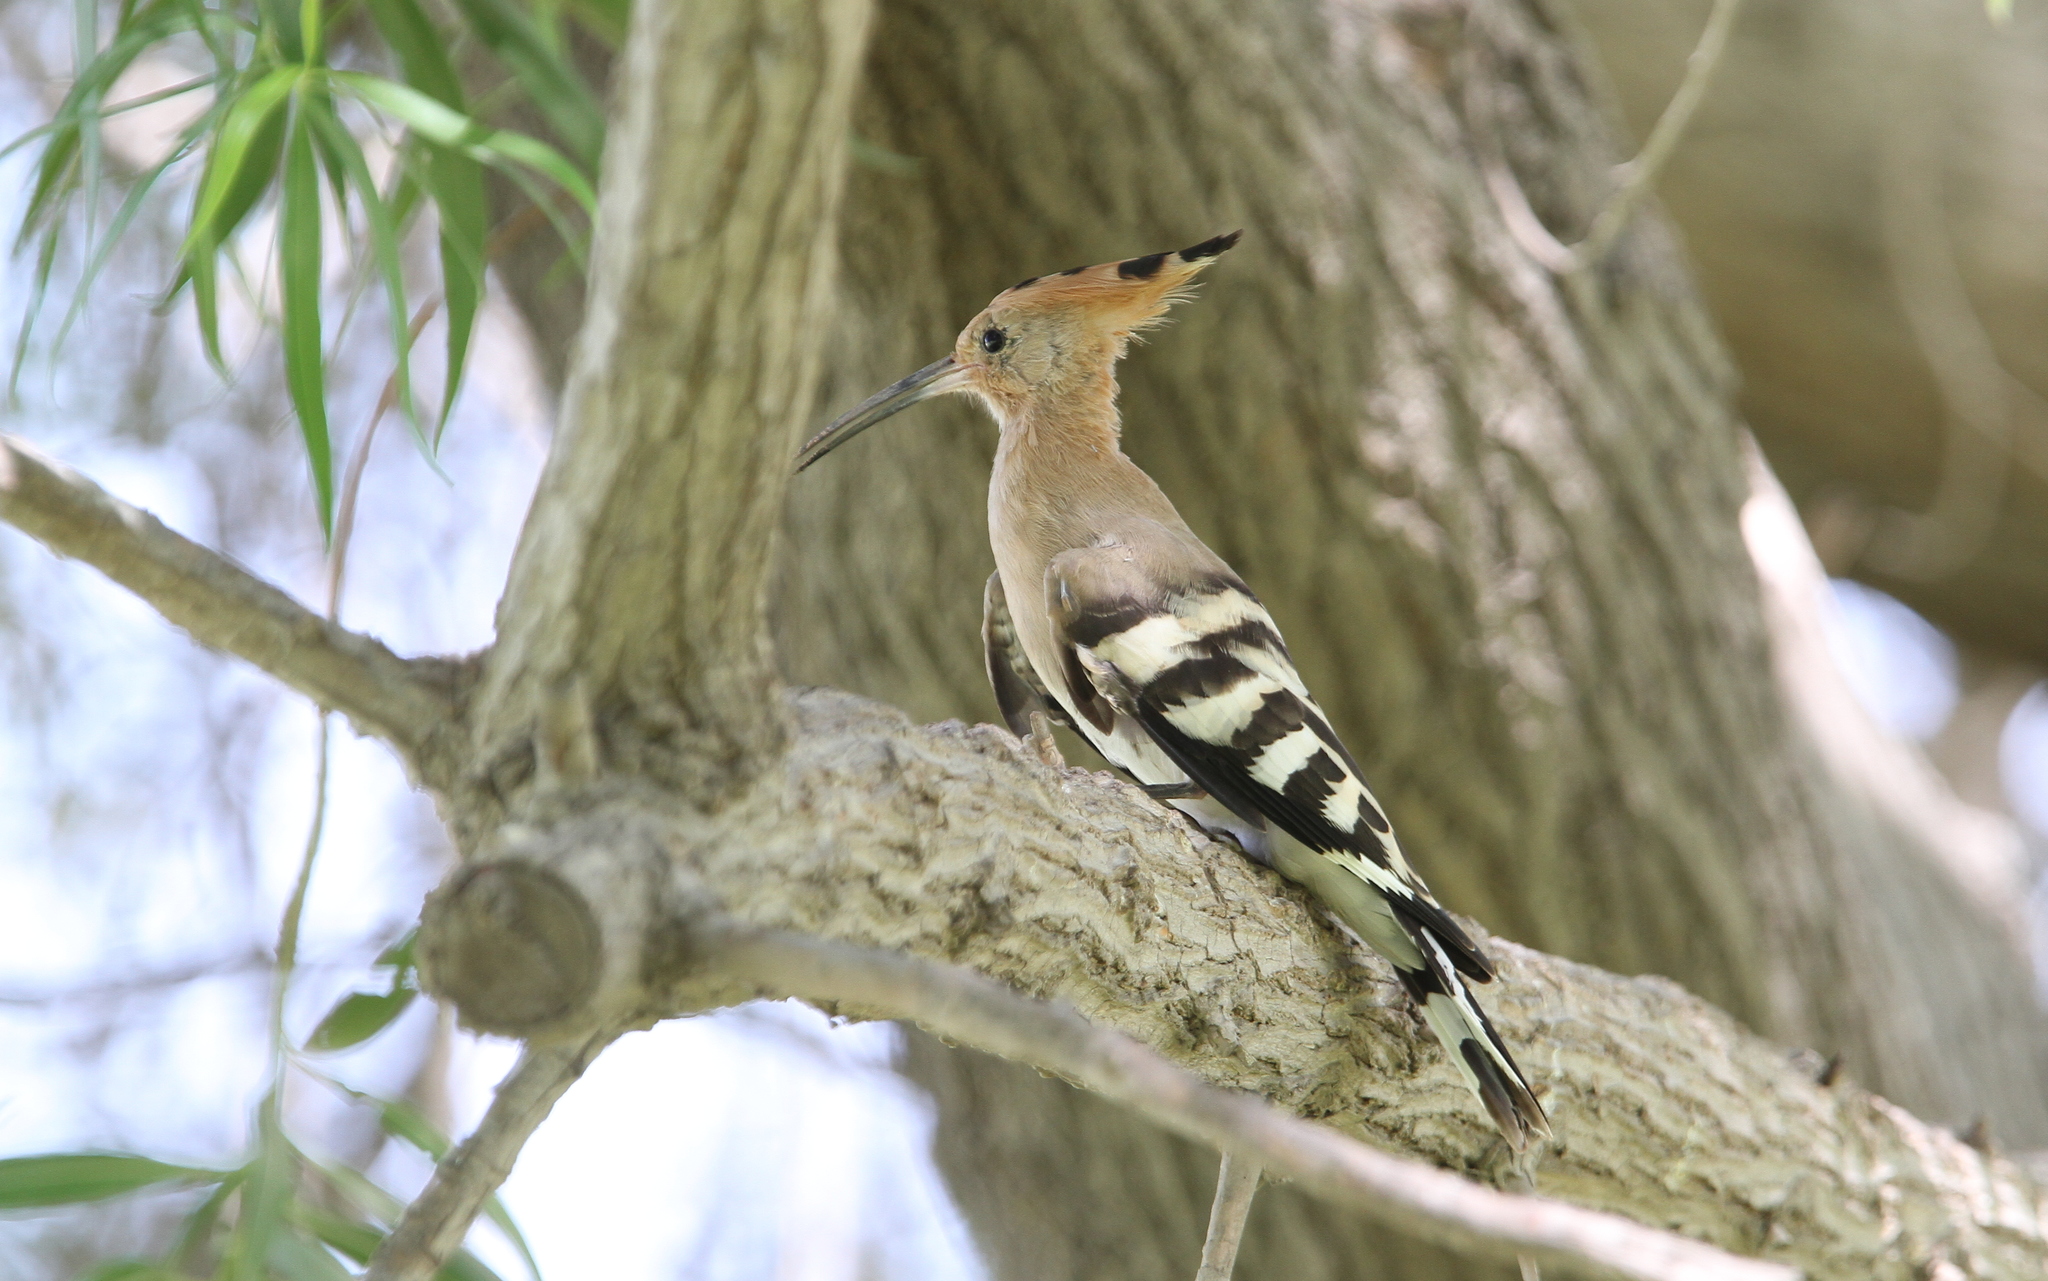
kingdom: Animalia
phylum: Chordata
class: Aves
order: Bucerotiformes
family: Upupidae
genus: Upupa
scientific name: Upupa epops
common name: Eurasian hoopoe
